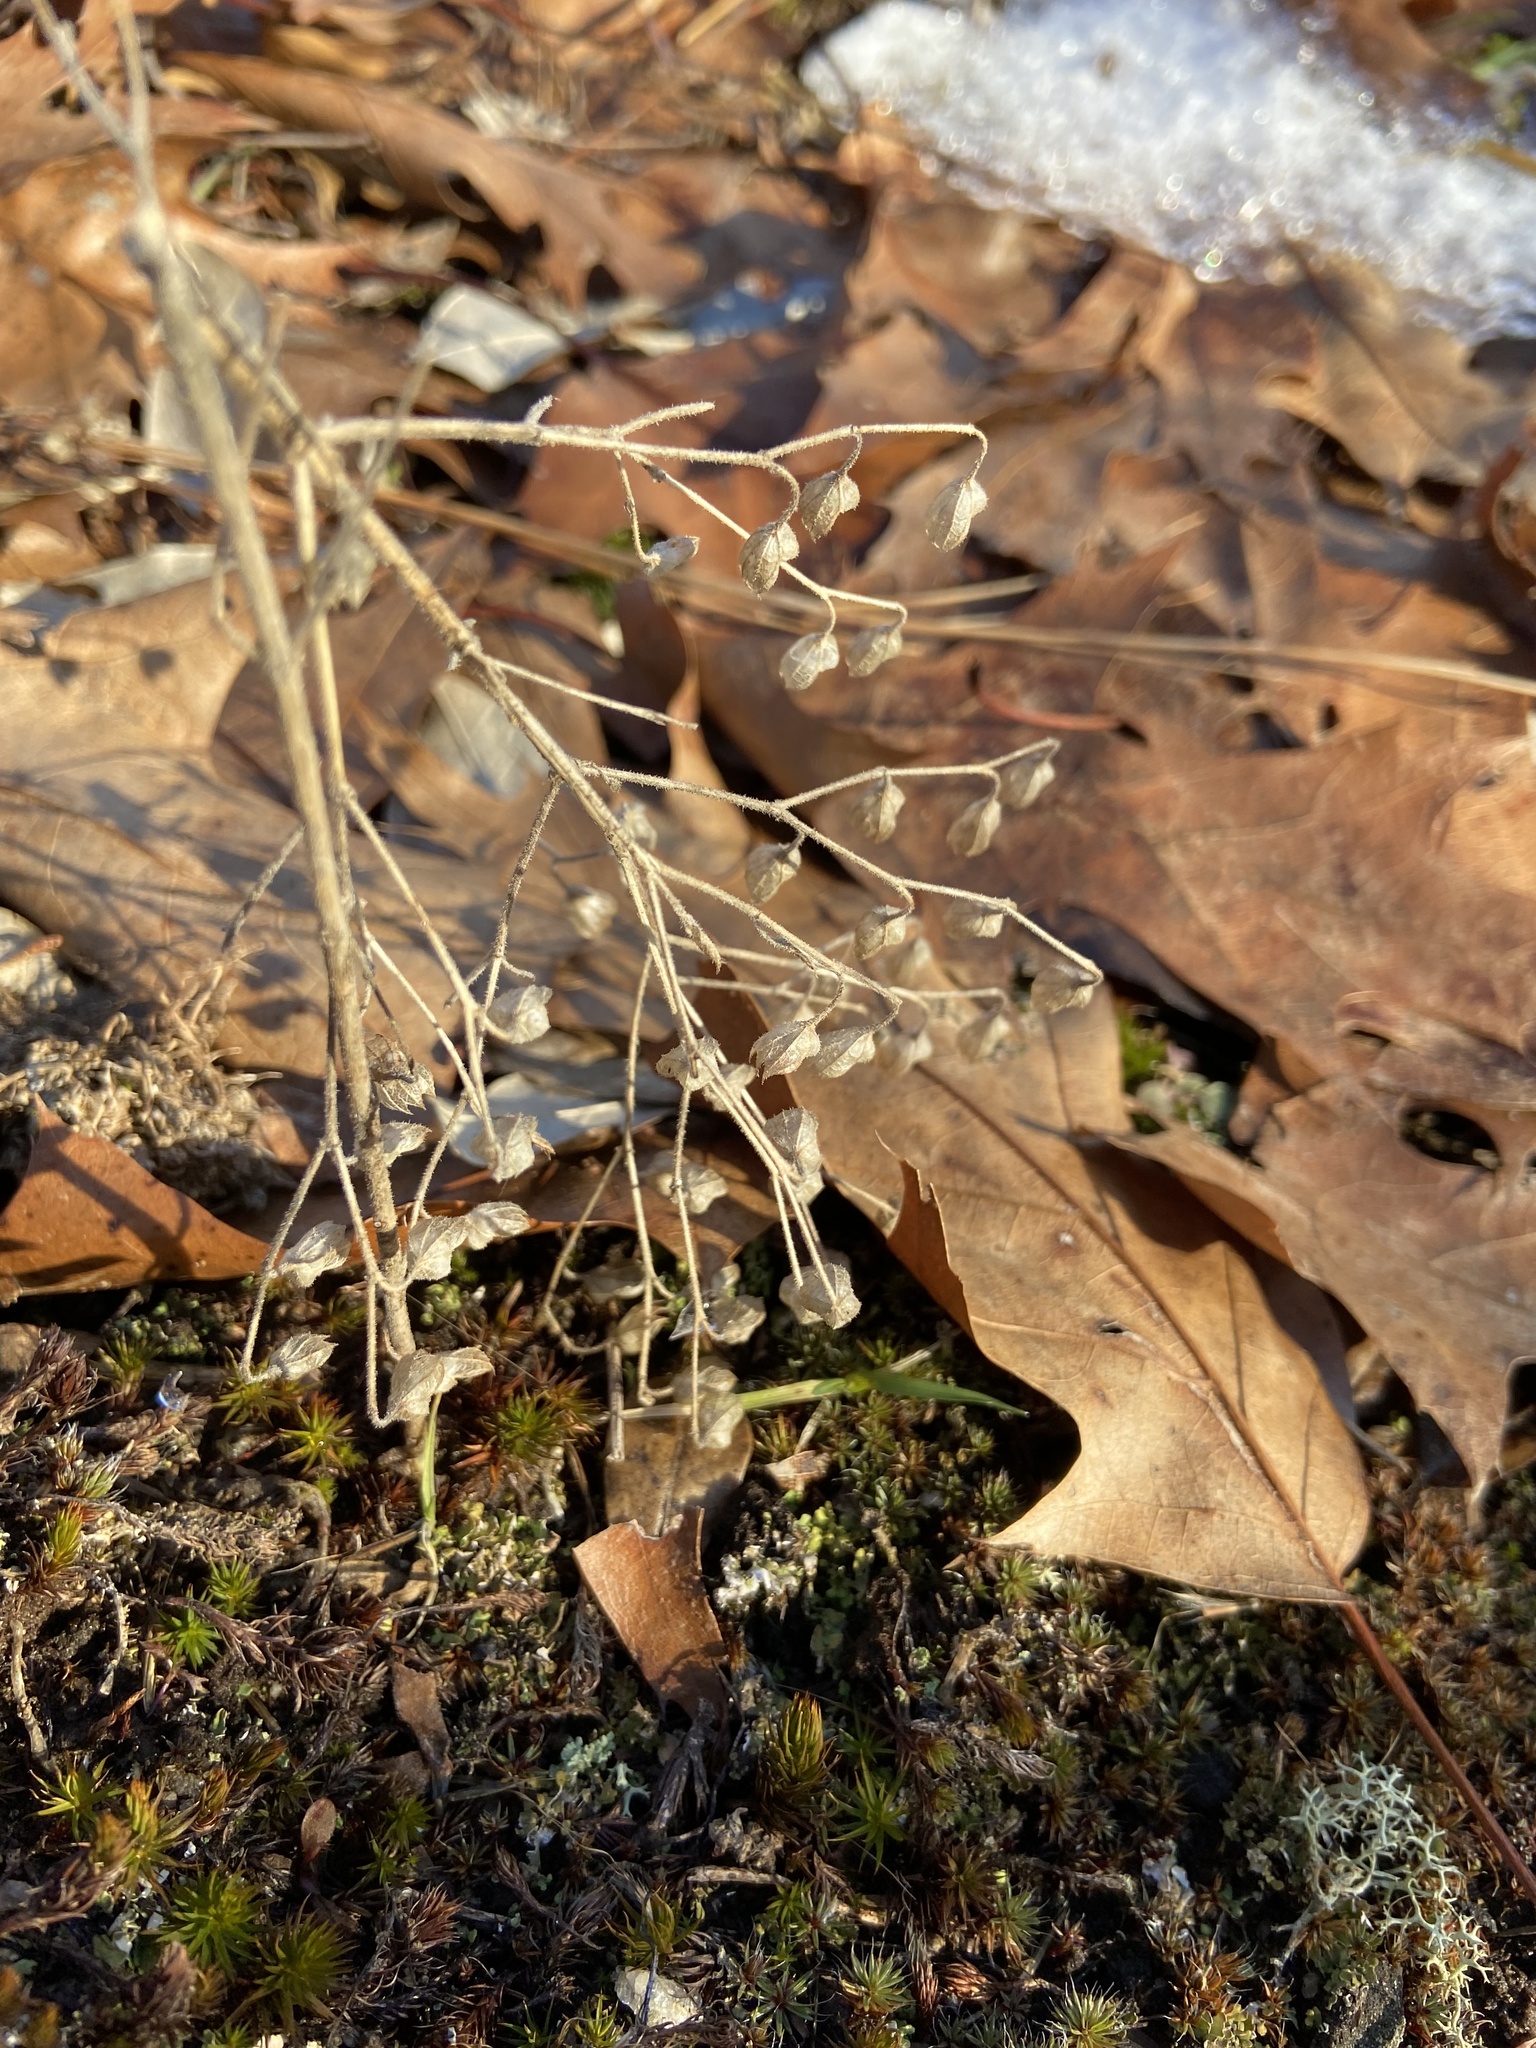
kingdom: Plantae
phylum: Tracheophyta
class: Magnoliopsida
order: Lamiales
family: Lamiaceae
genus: Trichostema
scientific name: Trichostema dichotomum
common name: Bastard pennyroyal
